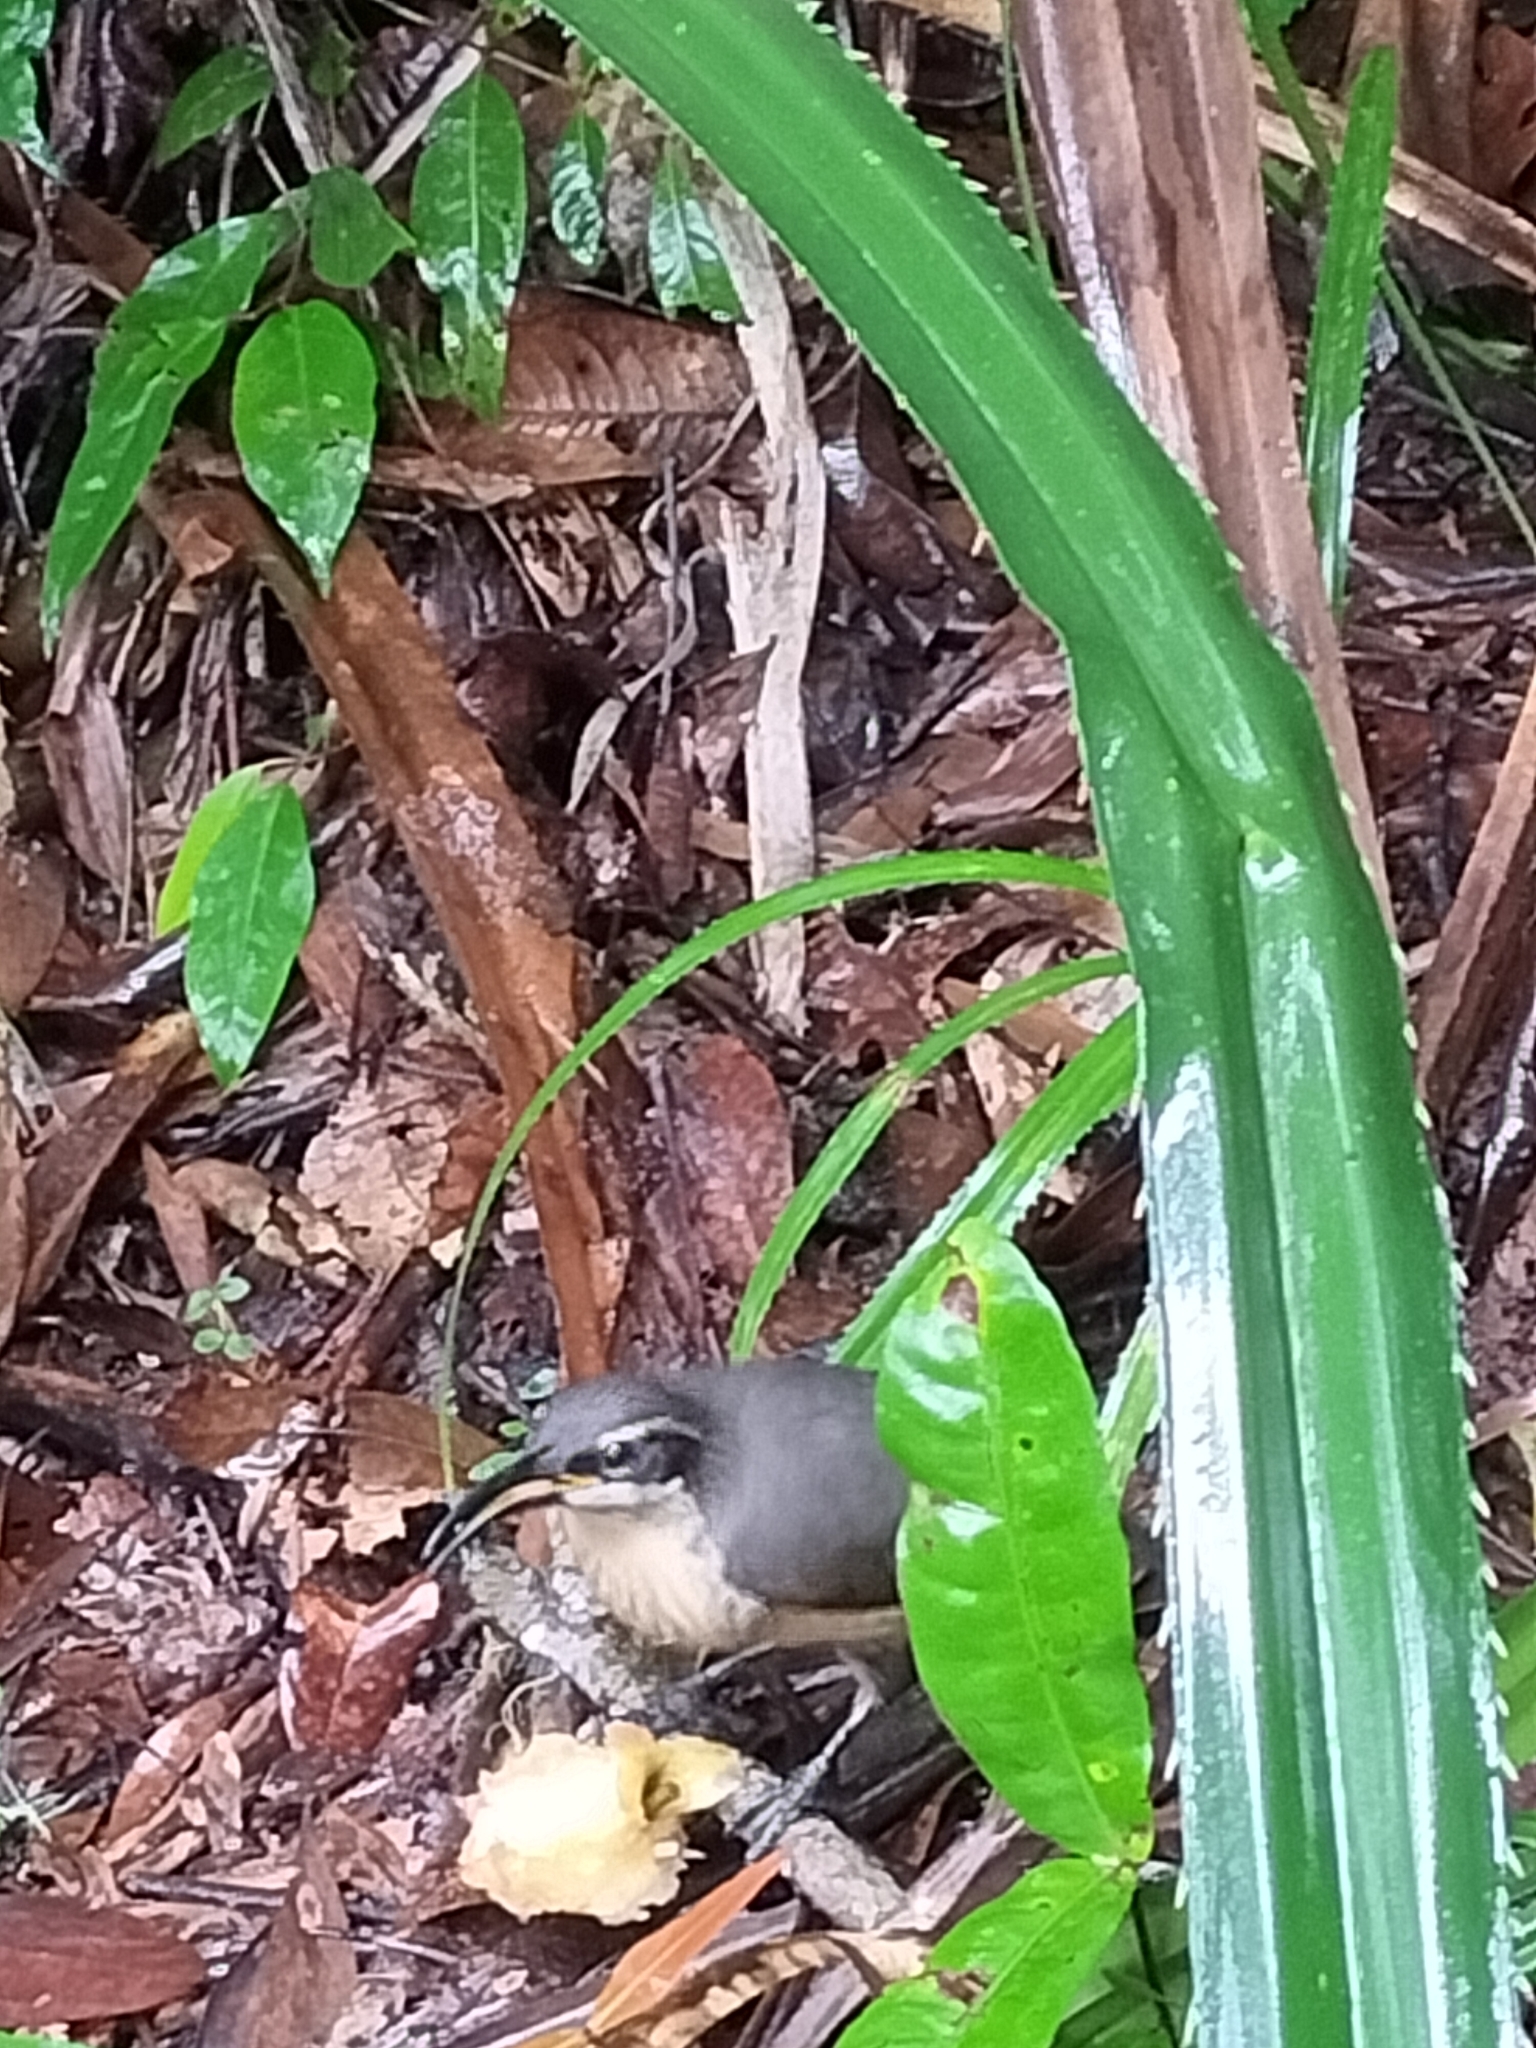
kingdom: Animalia
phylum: Chordata
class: Aves
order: Passeriformes
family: Paradisaeidae
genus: Ptiloris
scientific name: Ptiloris victoriae
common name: Victoria's riflebird
